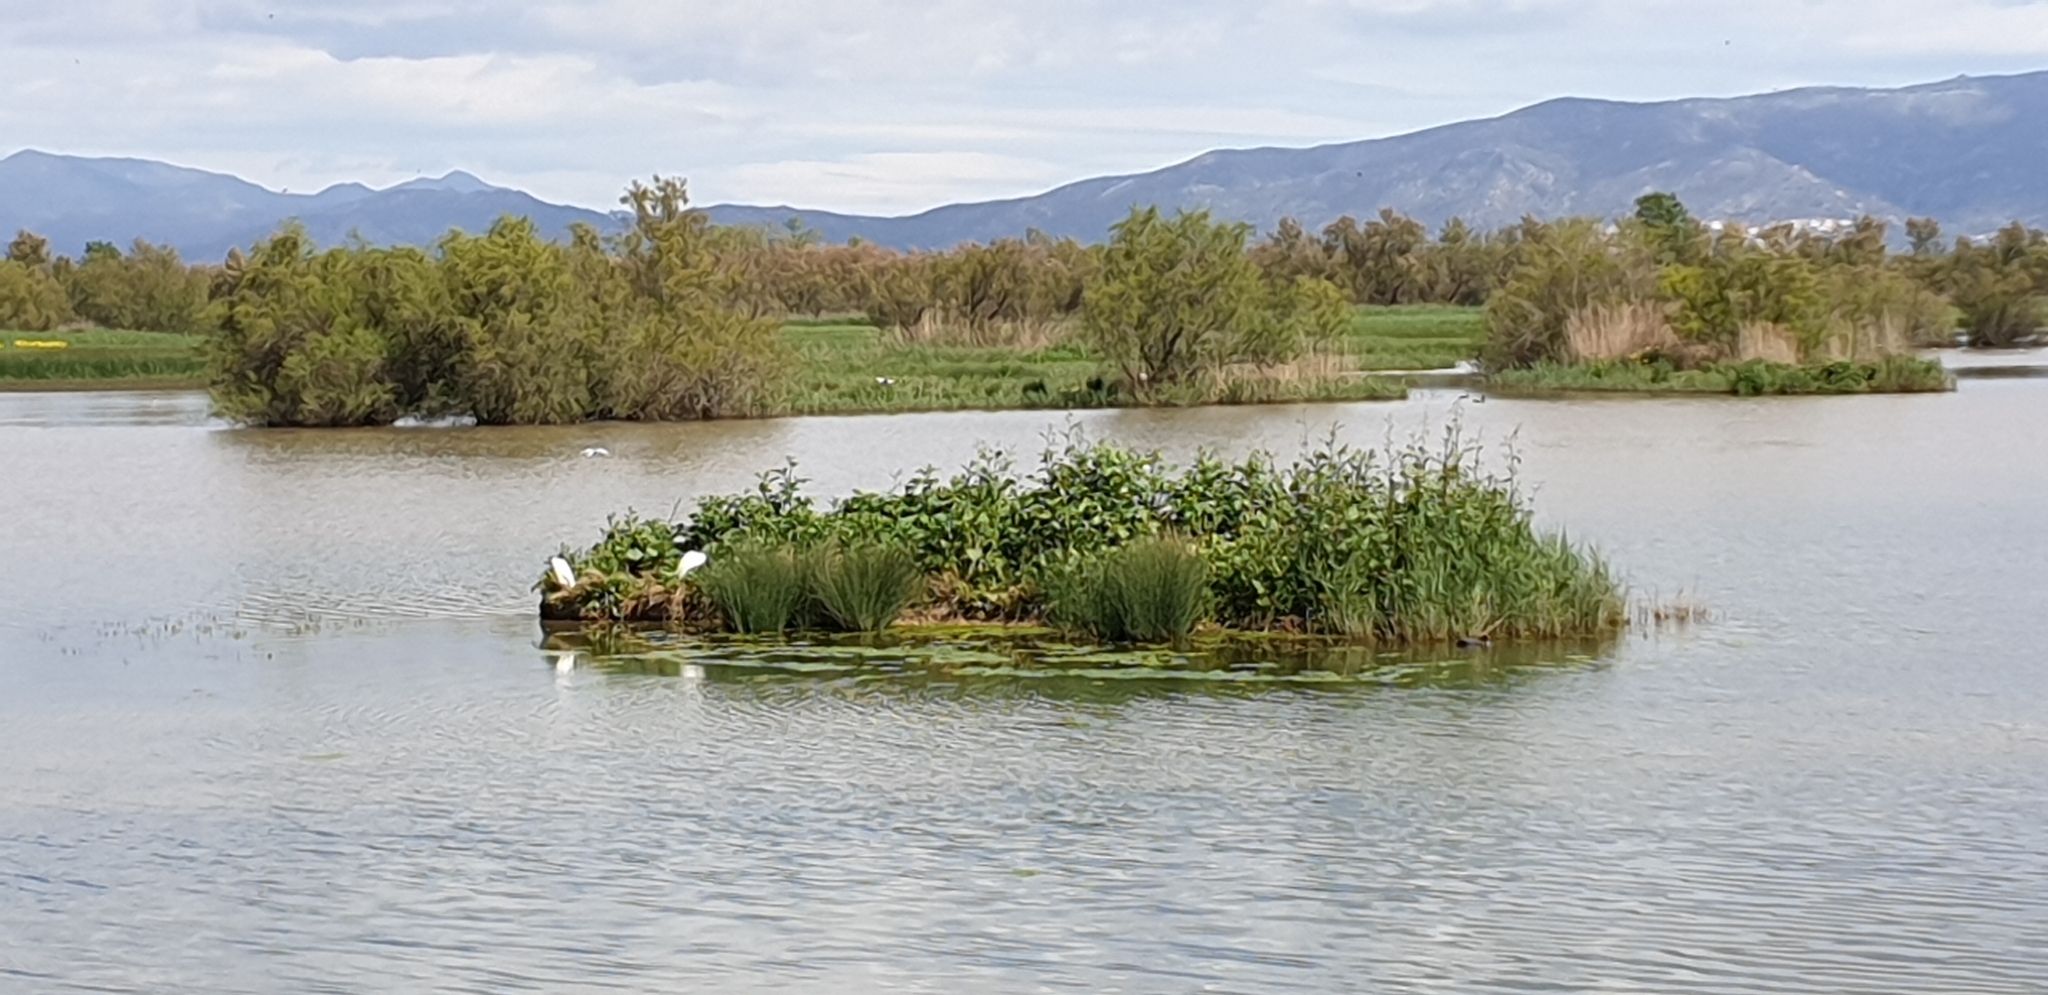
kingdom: Animalia
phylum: Chordata
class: Aves
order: Pelecaniformes
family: Ardeidae
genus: Egretta
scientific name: Egretta garzetta
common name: Little egret
